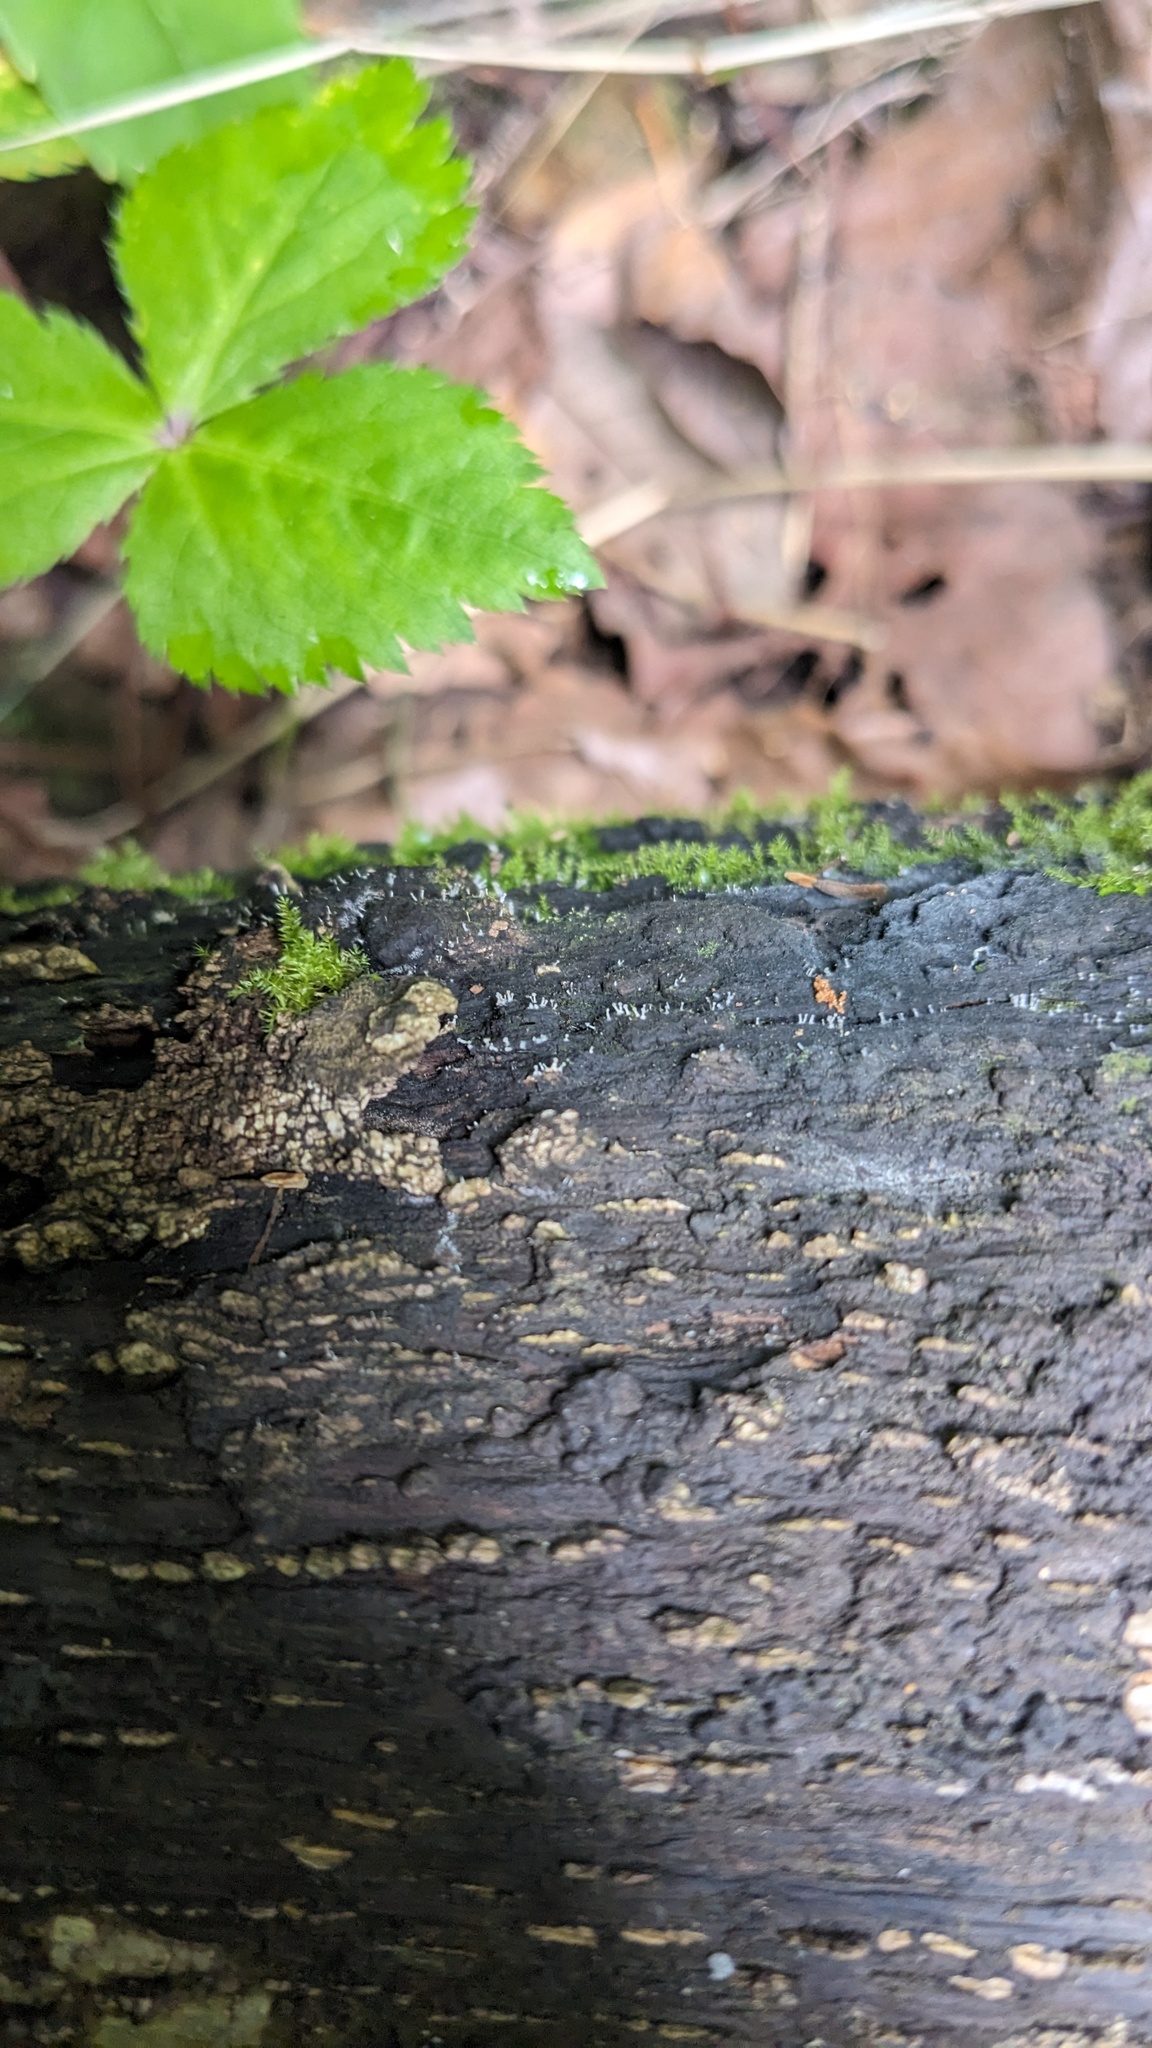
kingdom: Fungi
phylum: Ascomycota
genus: Stachycoremium
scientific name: Stachycoremium parvulum
